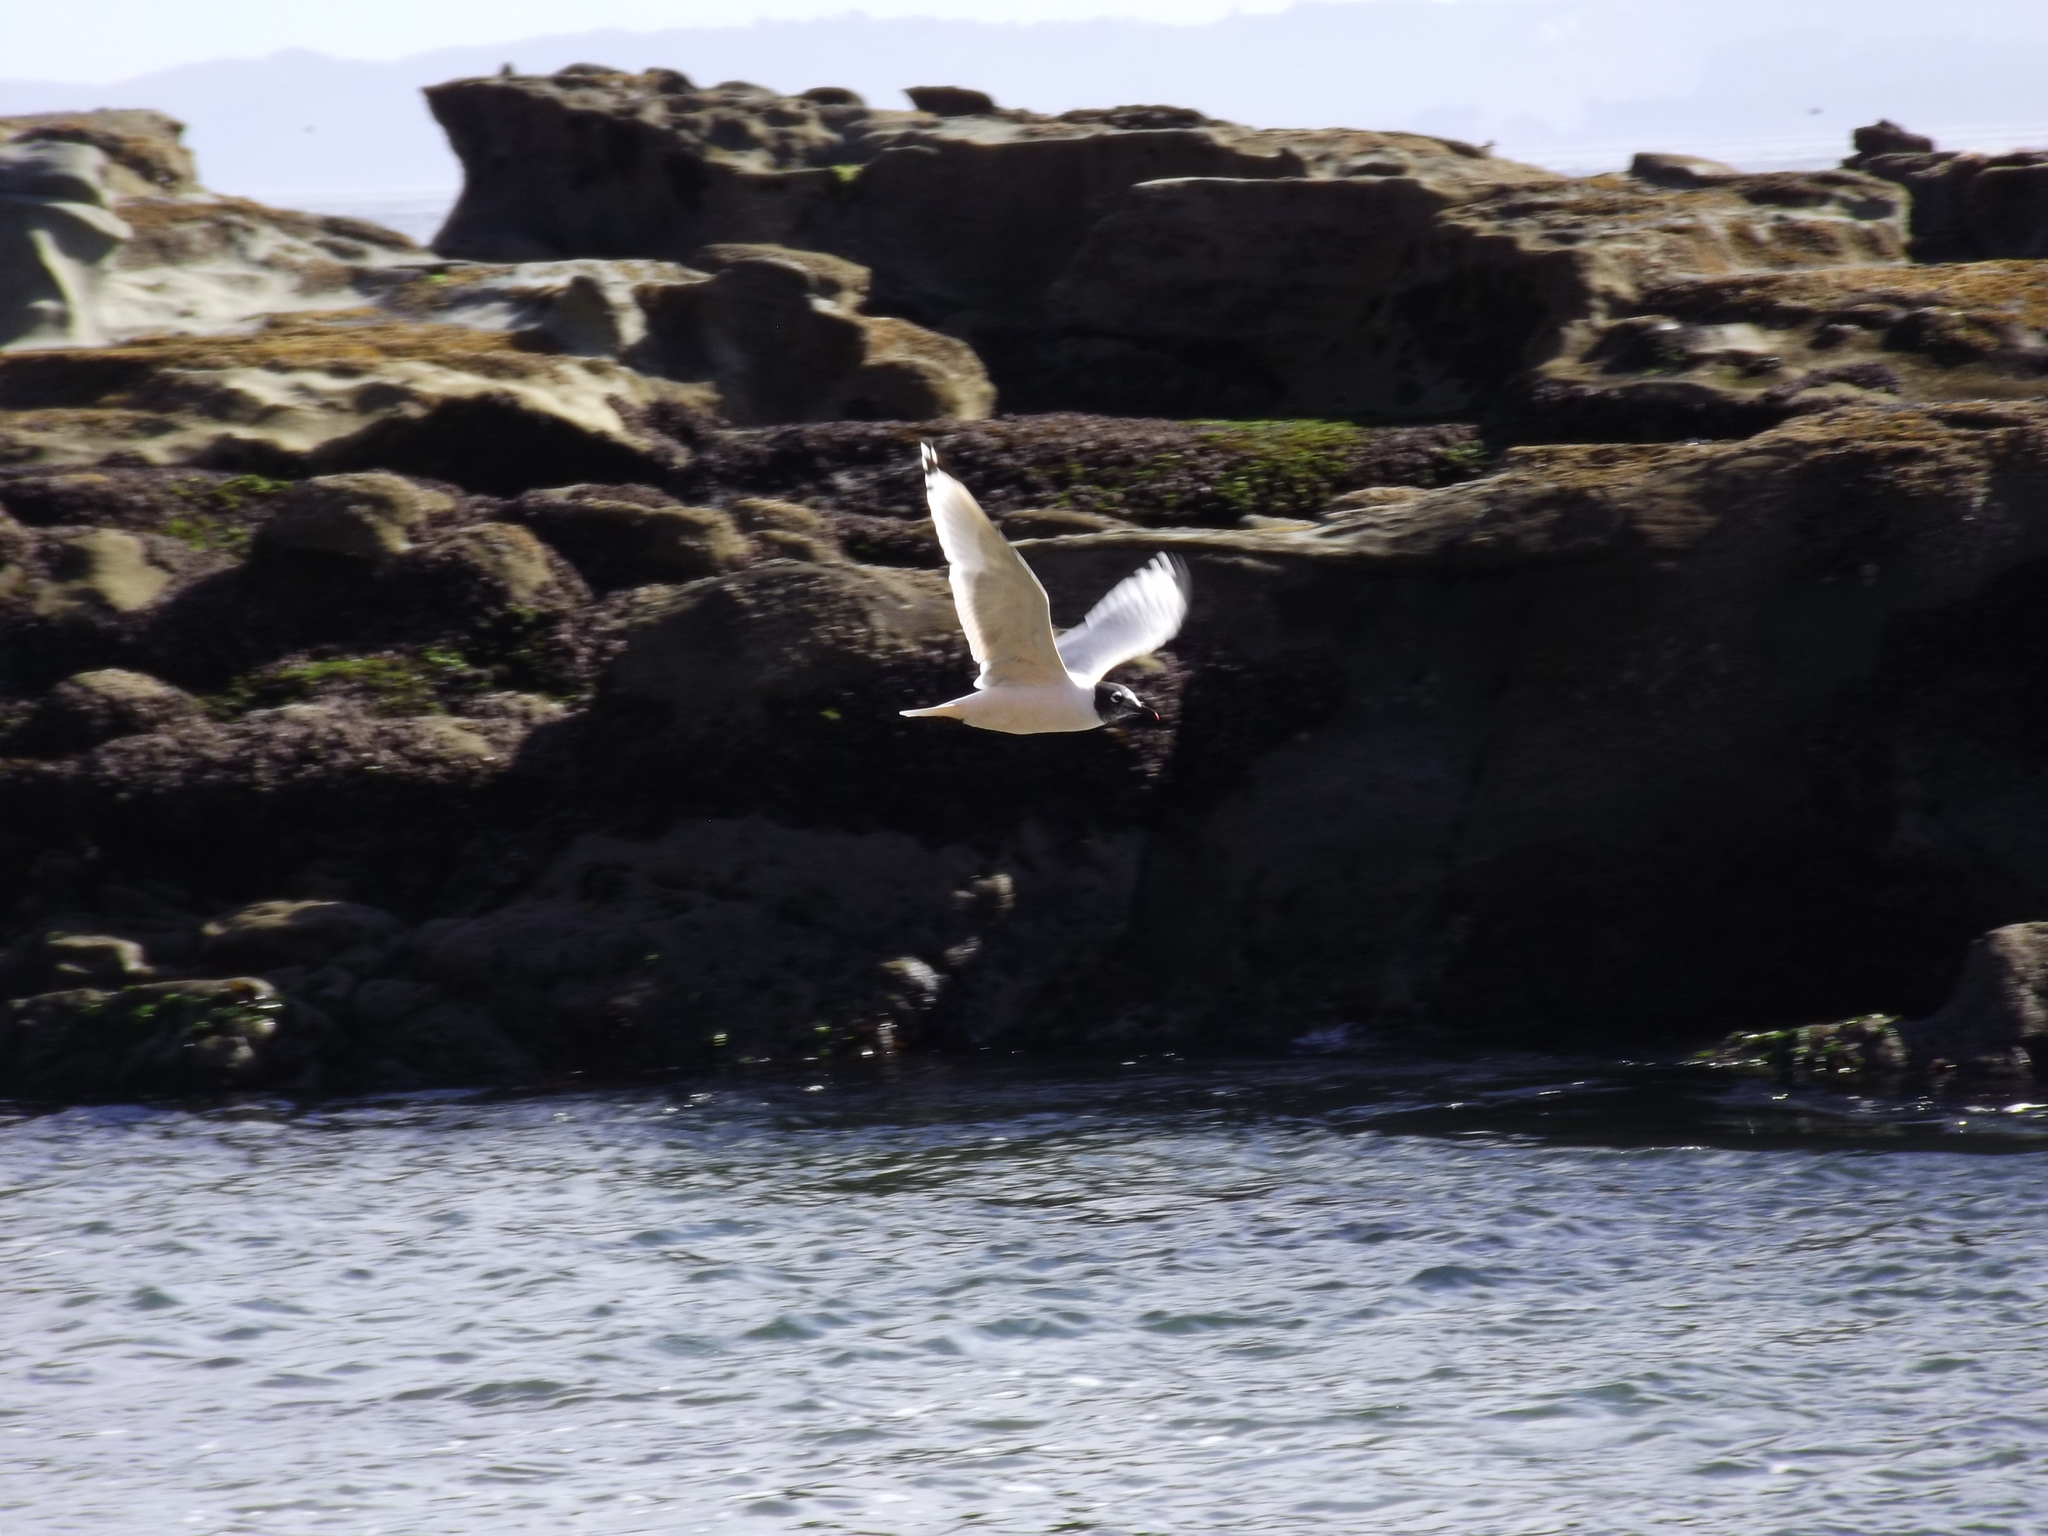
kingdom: Animalia
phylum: Chordata
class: Aves
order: Charadriiformes
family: Laridae
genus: Leucophaeus
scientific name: Leucophaeus pipixcan
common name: Franklin's gull
